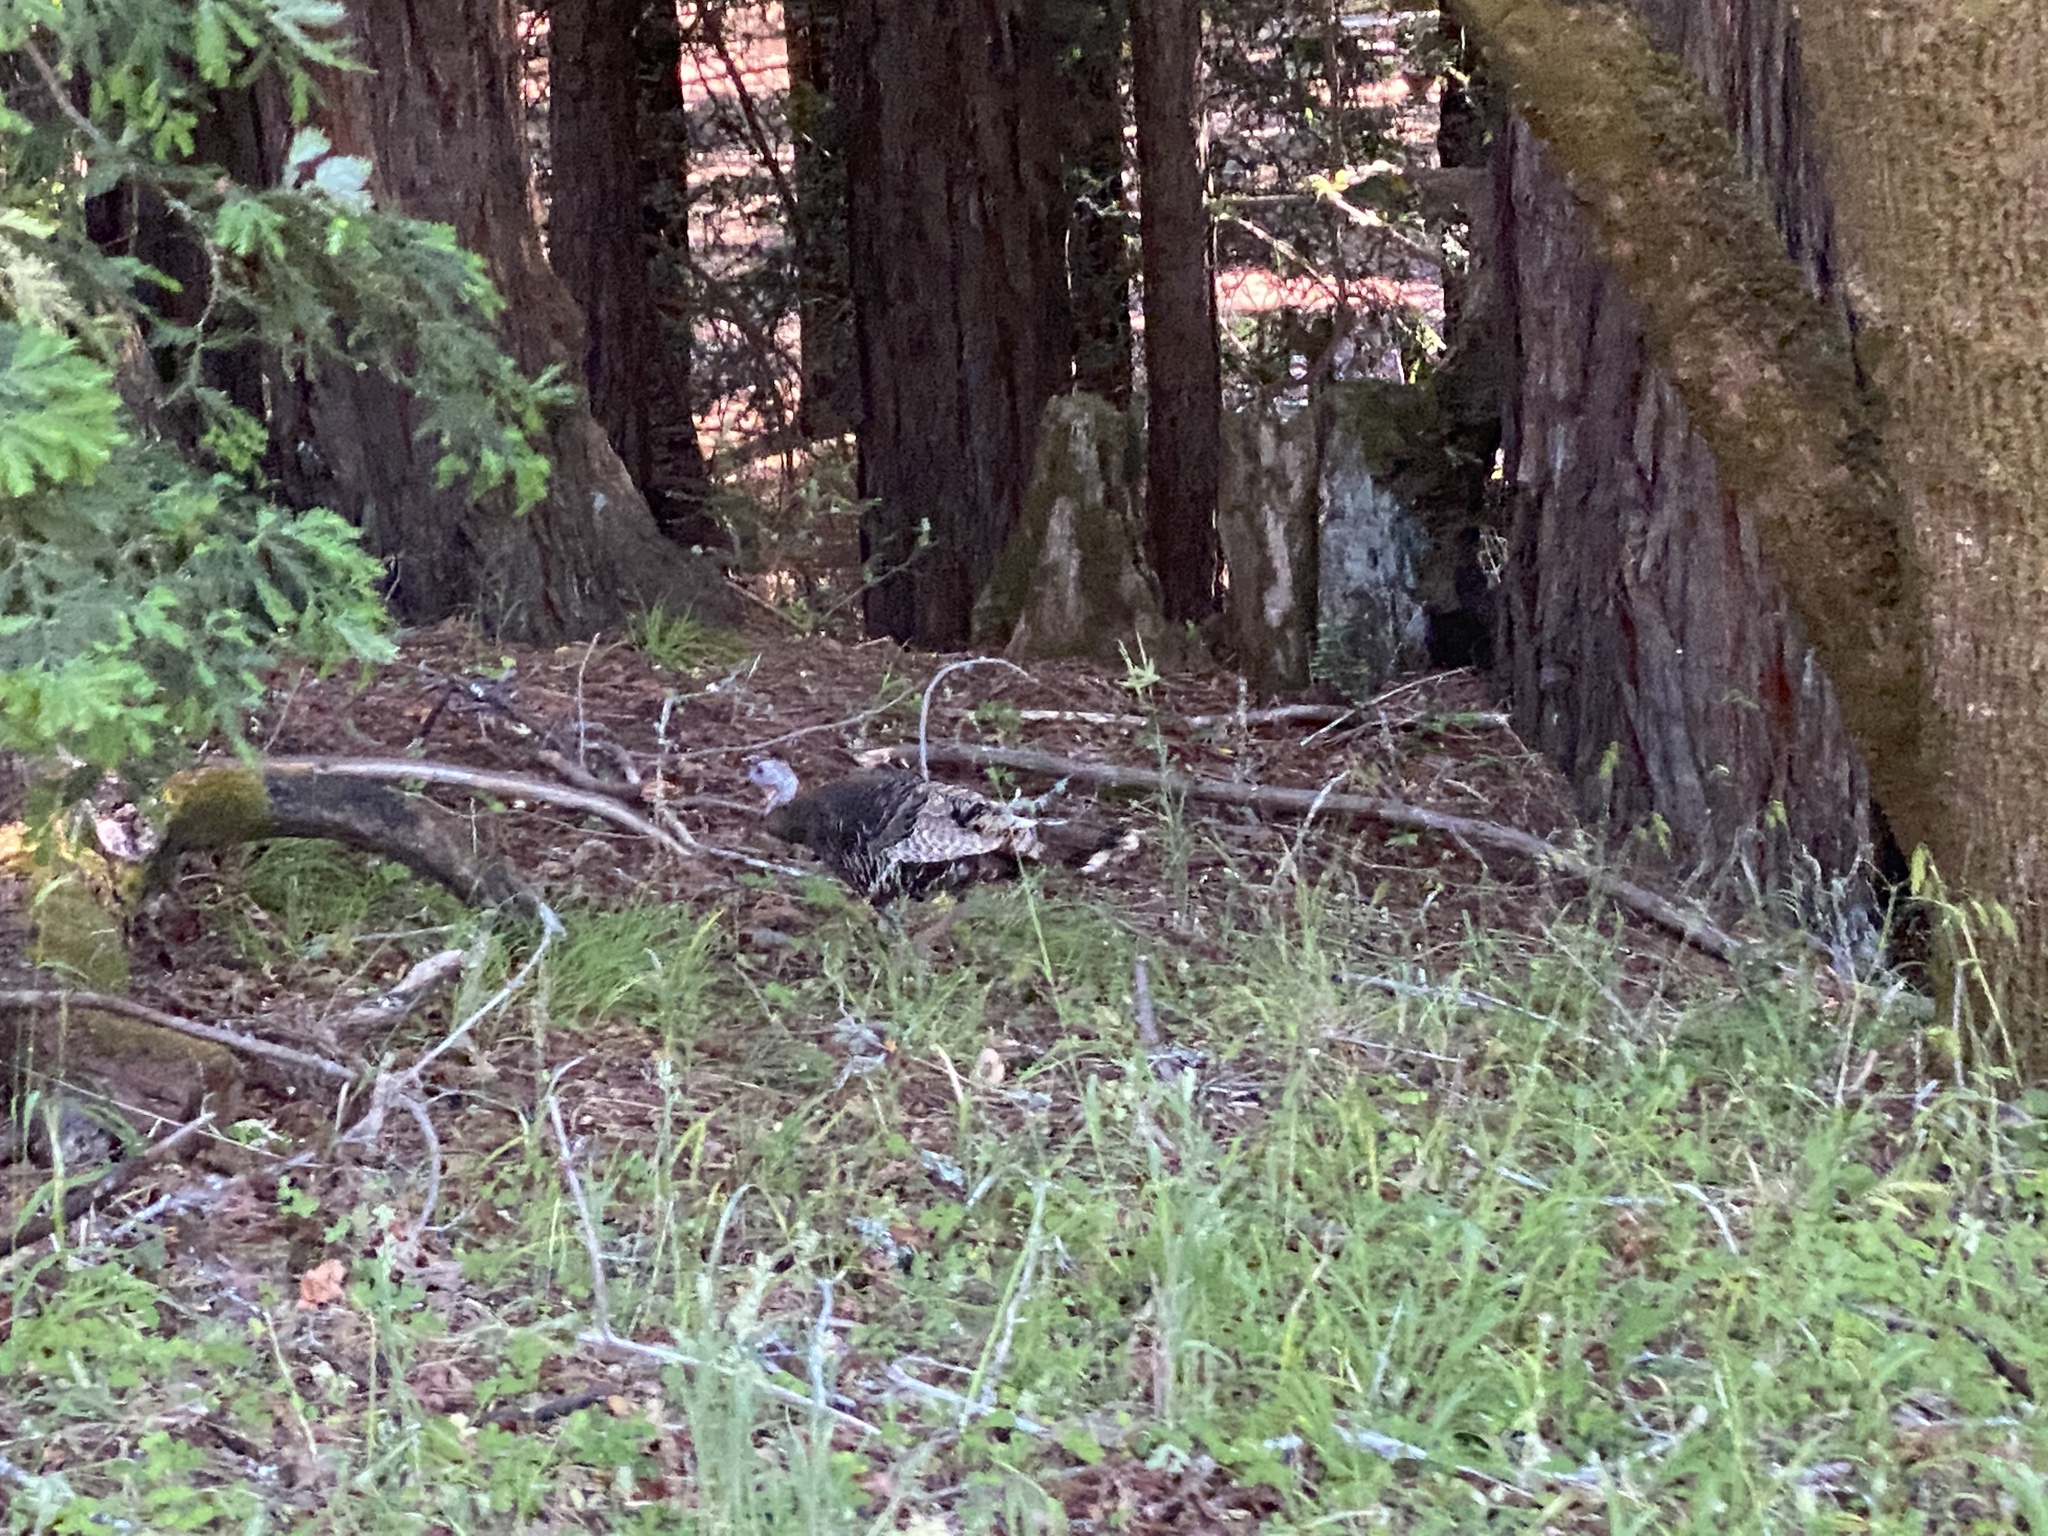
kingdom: Animalia
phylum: Chordata
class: Aves
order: Galliformes
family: Phasianidae
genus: Meleagris
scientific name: Meleagris gallopavo
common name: Wild turkey
